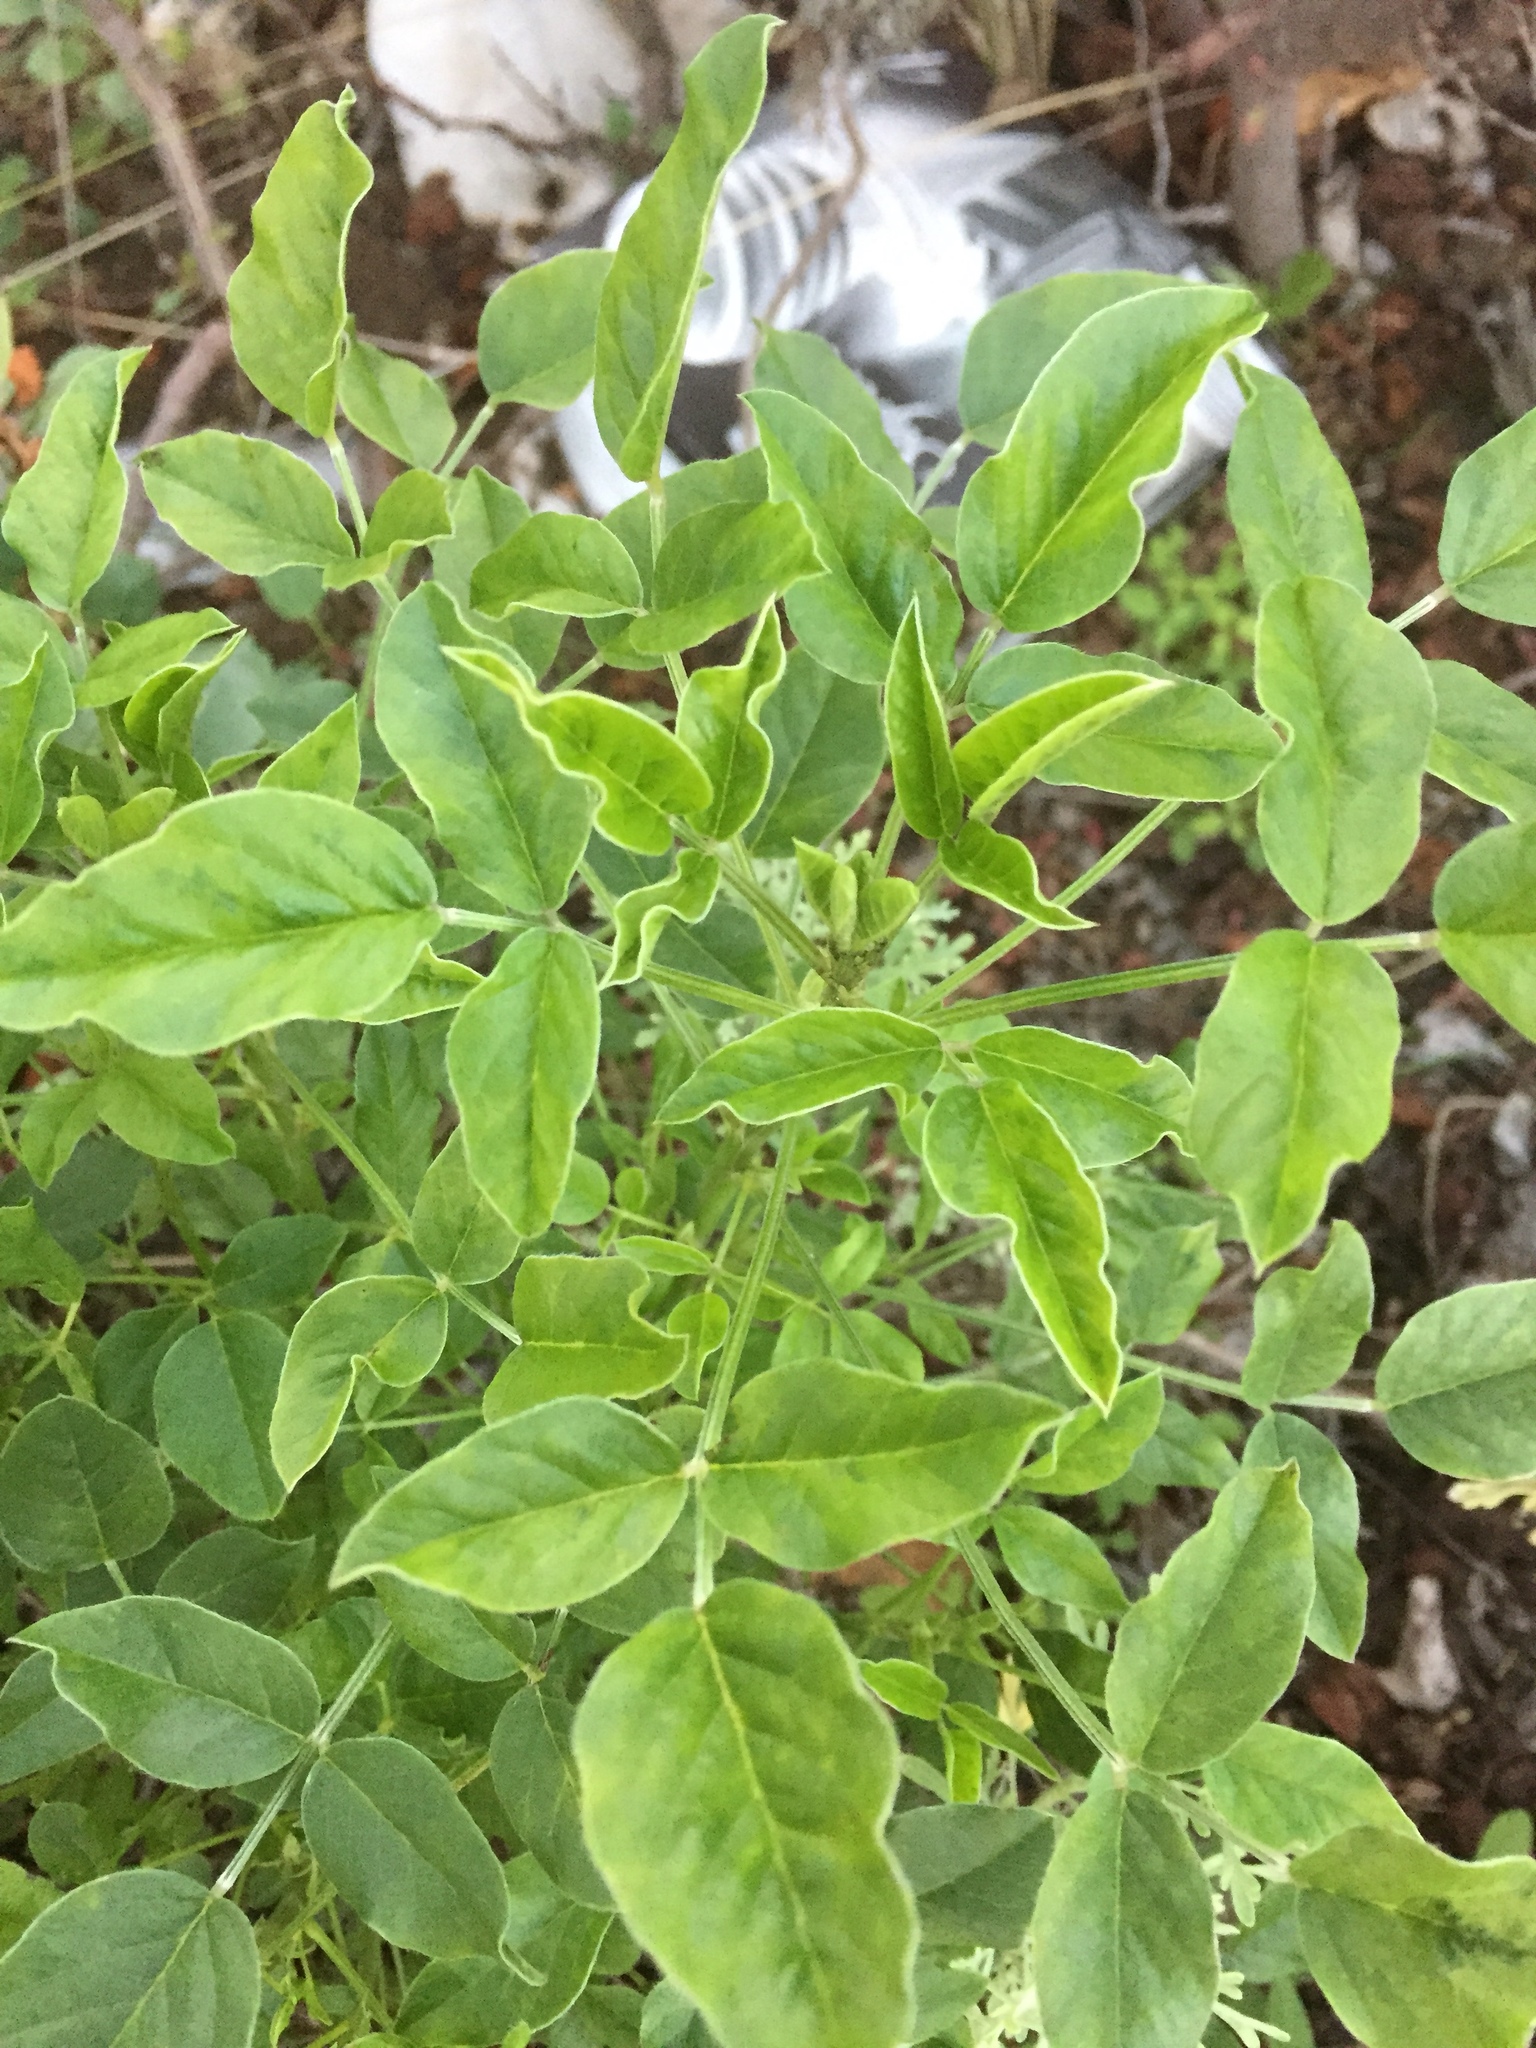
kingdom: Plantae
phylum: Tracheophyta
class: Magnoliopsida
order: Fabales
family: Fabaceae
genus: Bituminaria
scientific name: Bituminaria bituminosa
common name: Arabian pea
